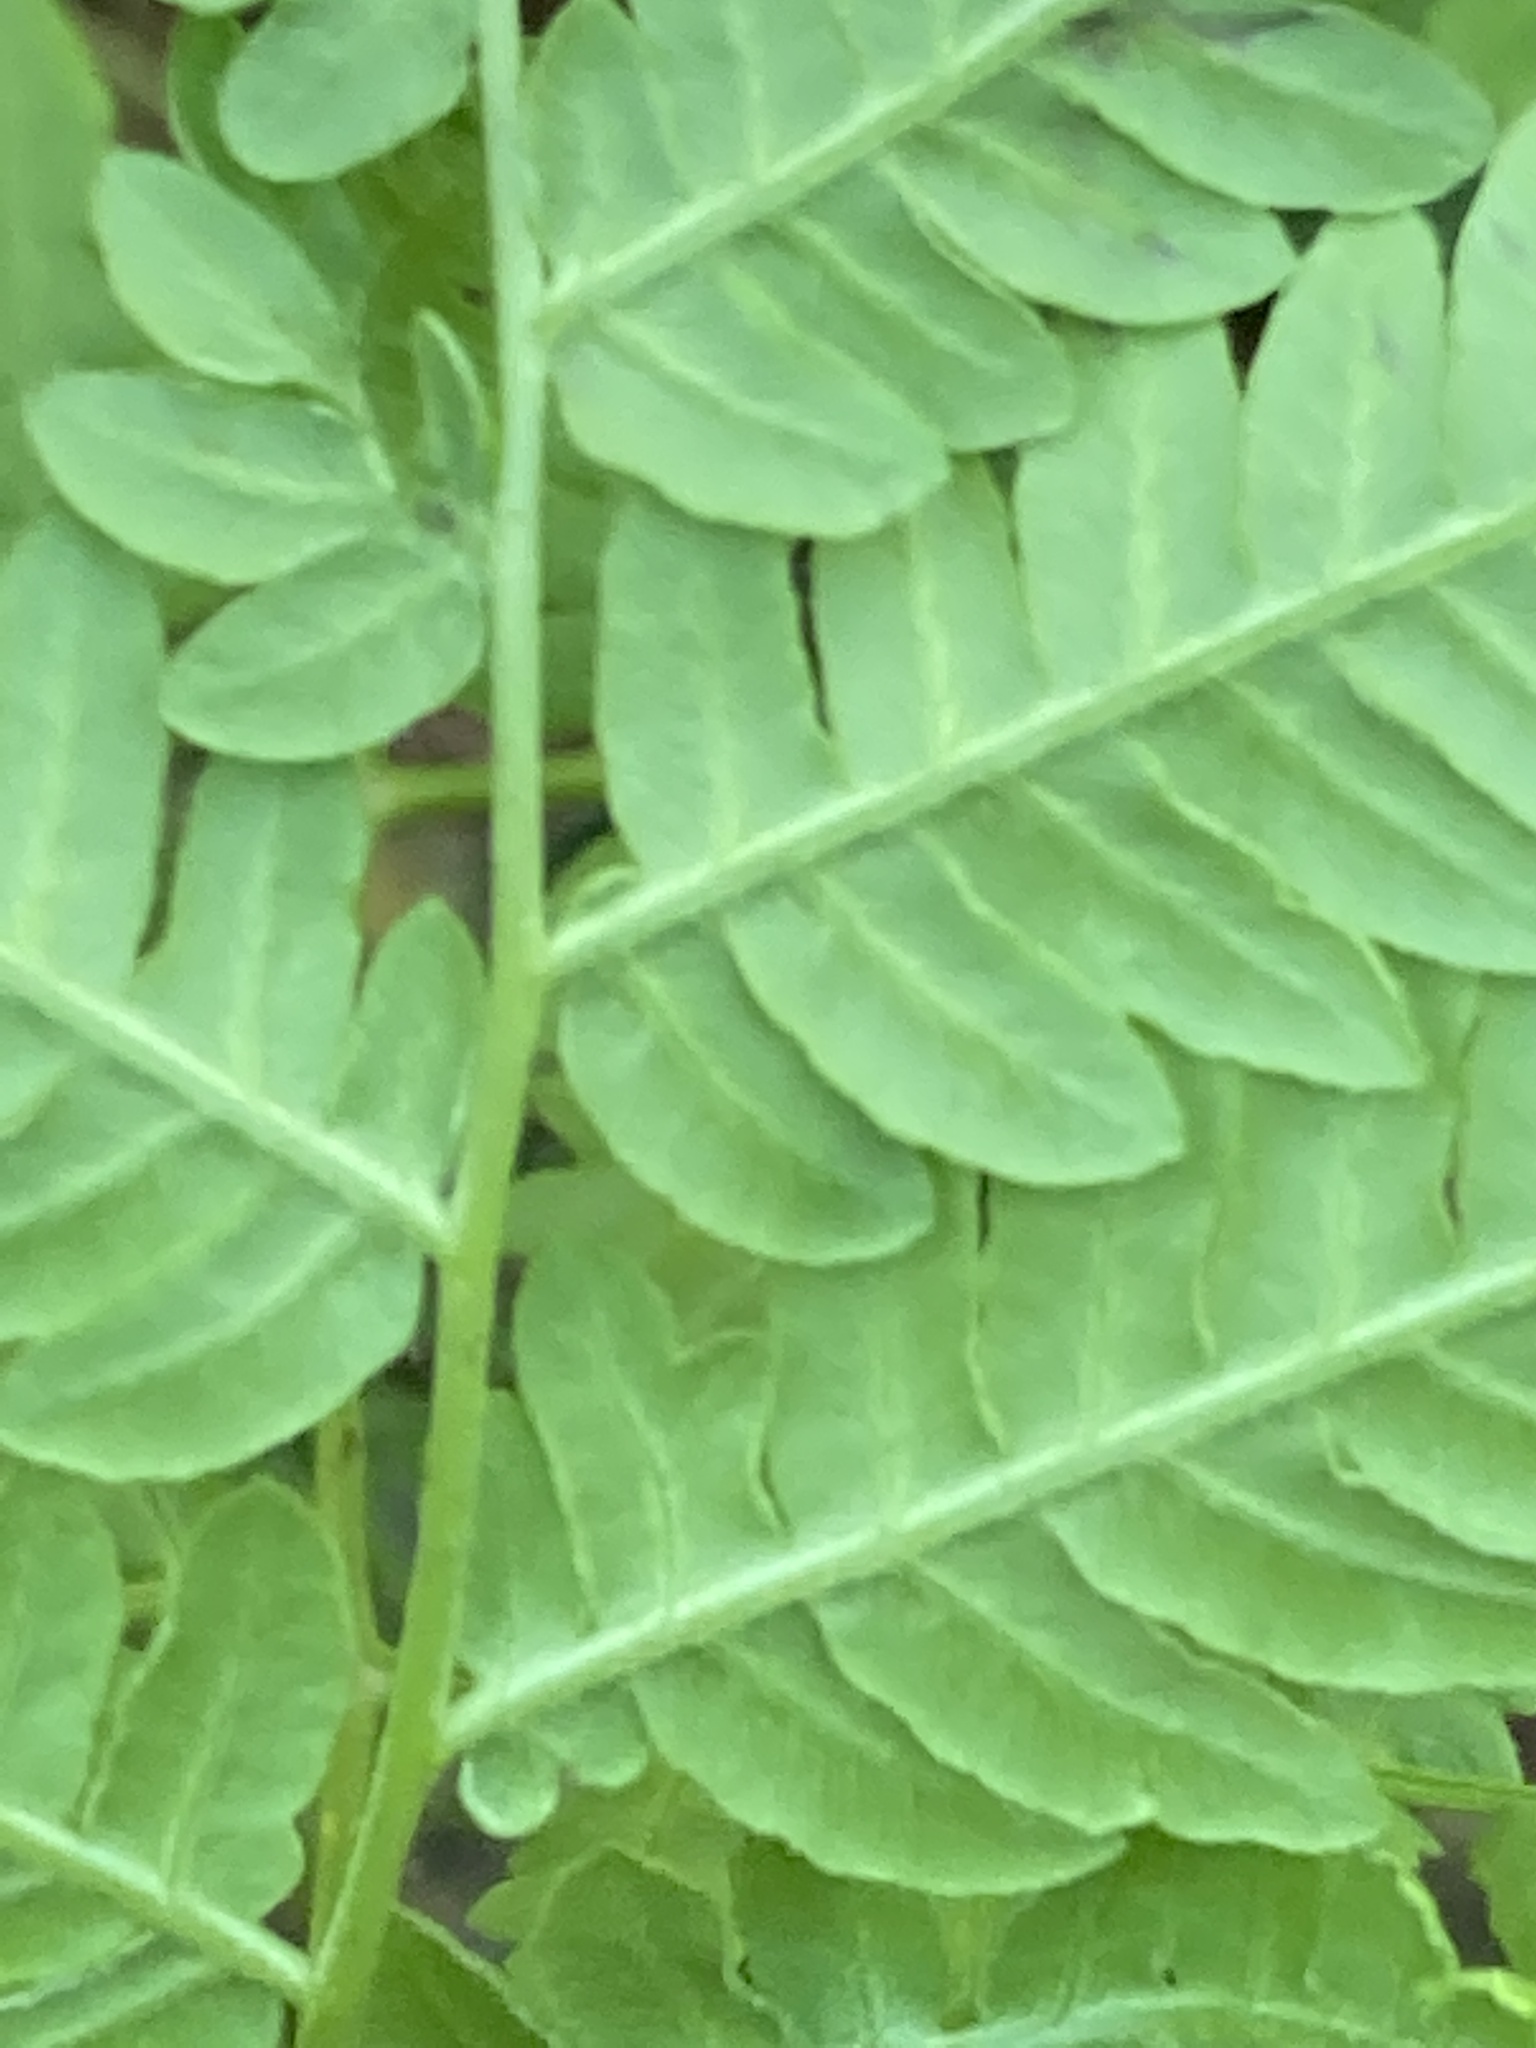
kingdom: Plantae
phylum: Tracheophyta
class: Polypodiopsida
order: Polypodiales
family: Dennstaedtiaceae
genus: Pteridium
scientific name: Pteridium aquilinum
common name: Bracken
